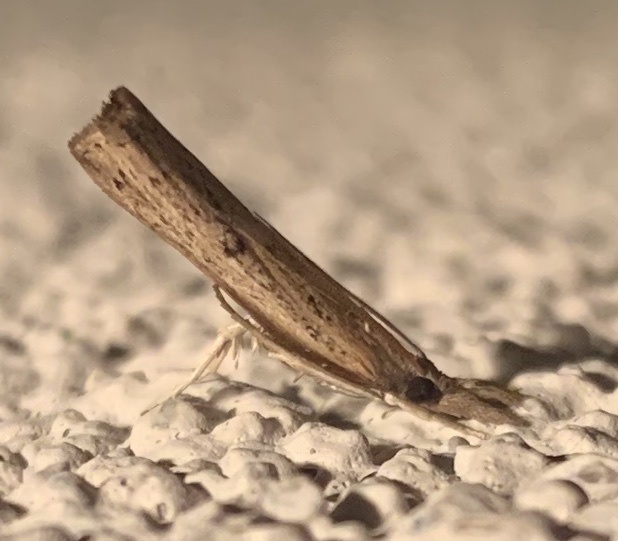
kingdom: Animalia
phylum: Arthropoda
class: Insecta
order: Lepidoptera
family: Crambidae
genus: Fissicrambus
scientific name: Fissicrambus mutabilis
